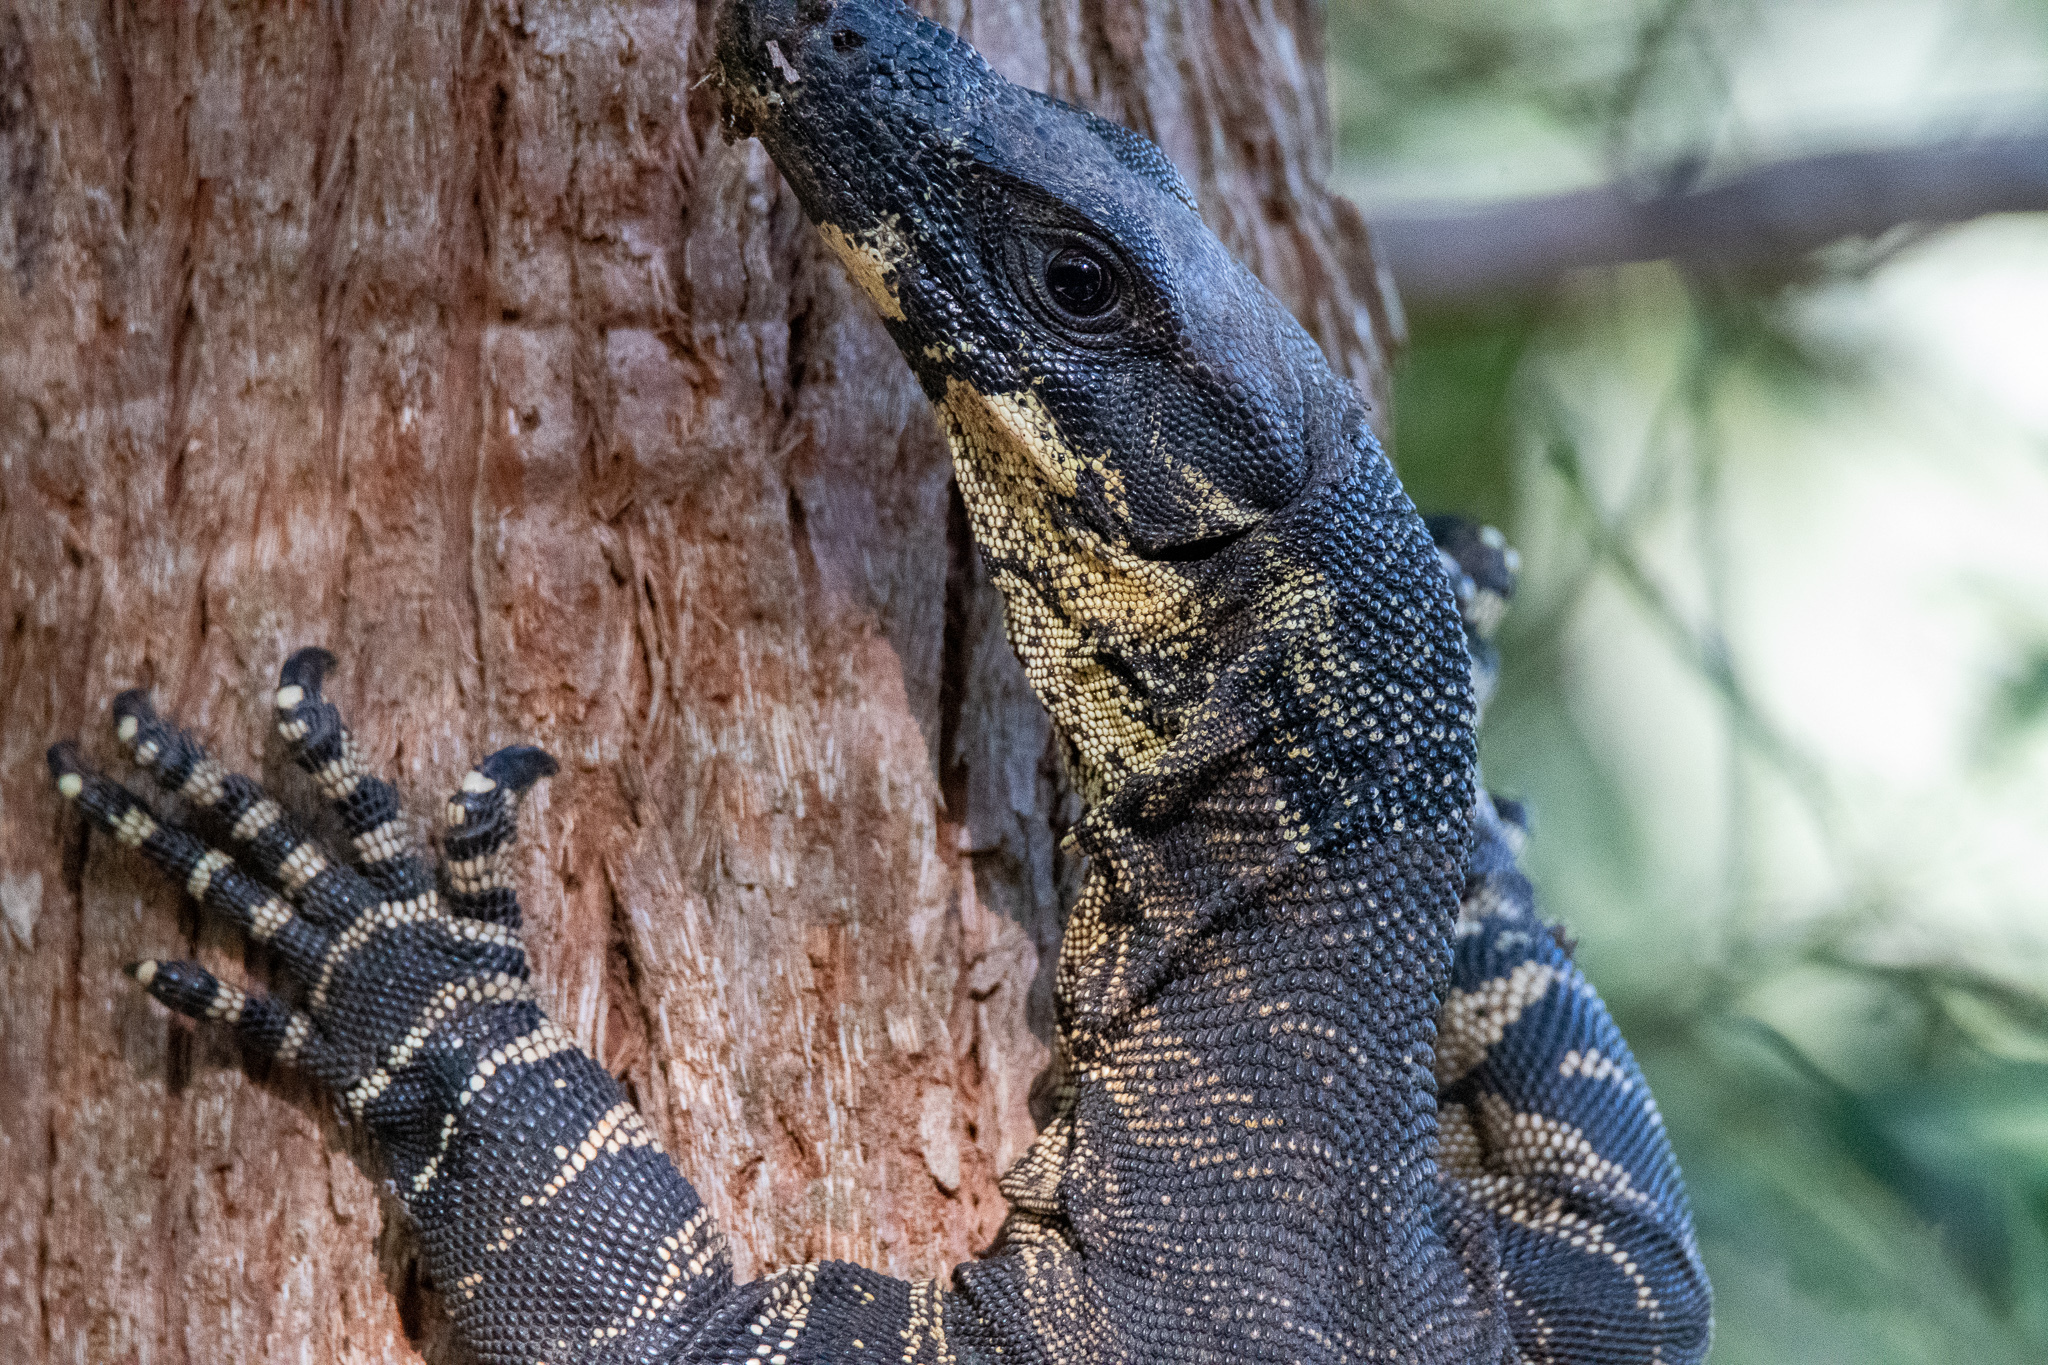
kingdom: Animalia
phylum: Chordata
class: Squamata
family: Varanidae
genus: Varanus
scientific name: Varanus varius
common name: Lace monitor
